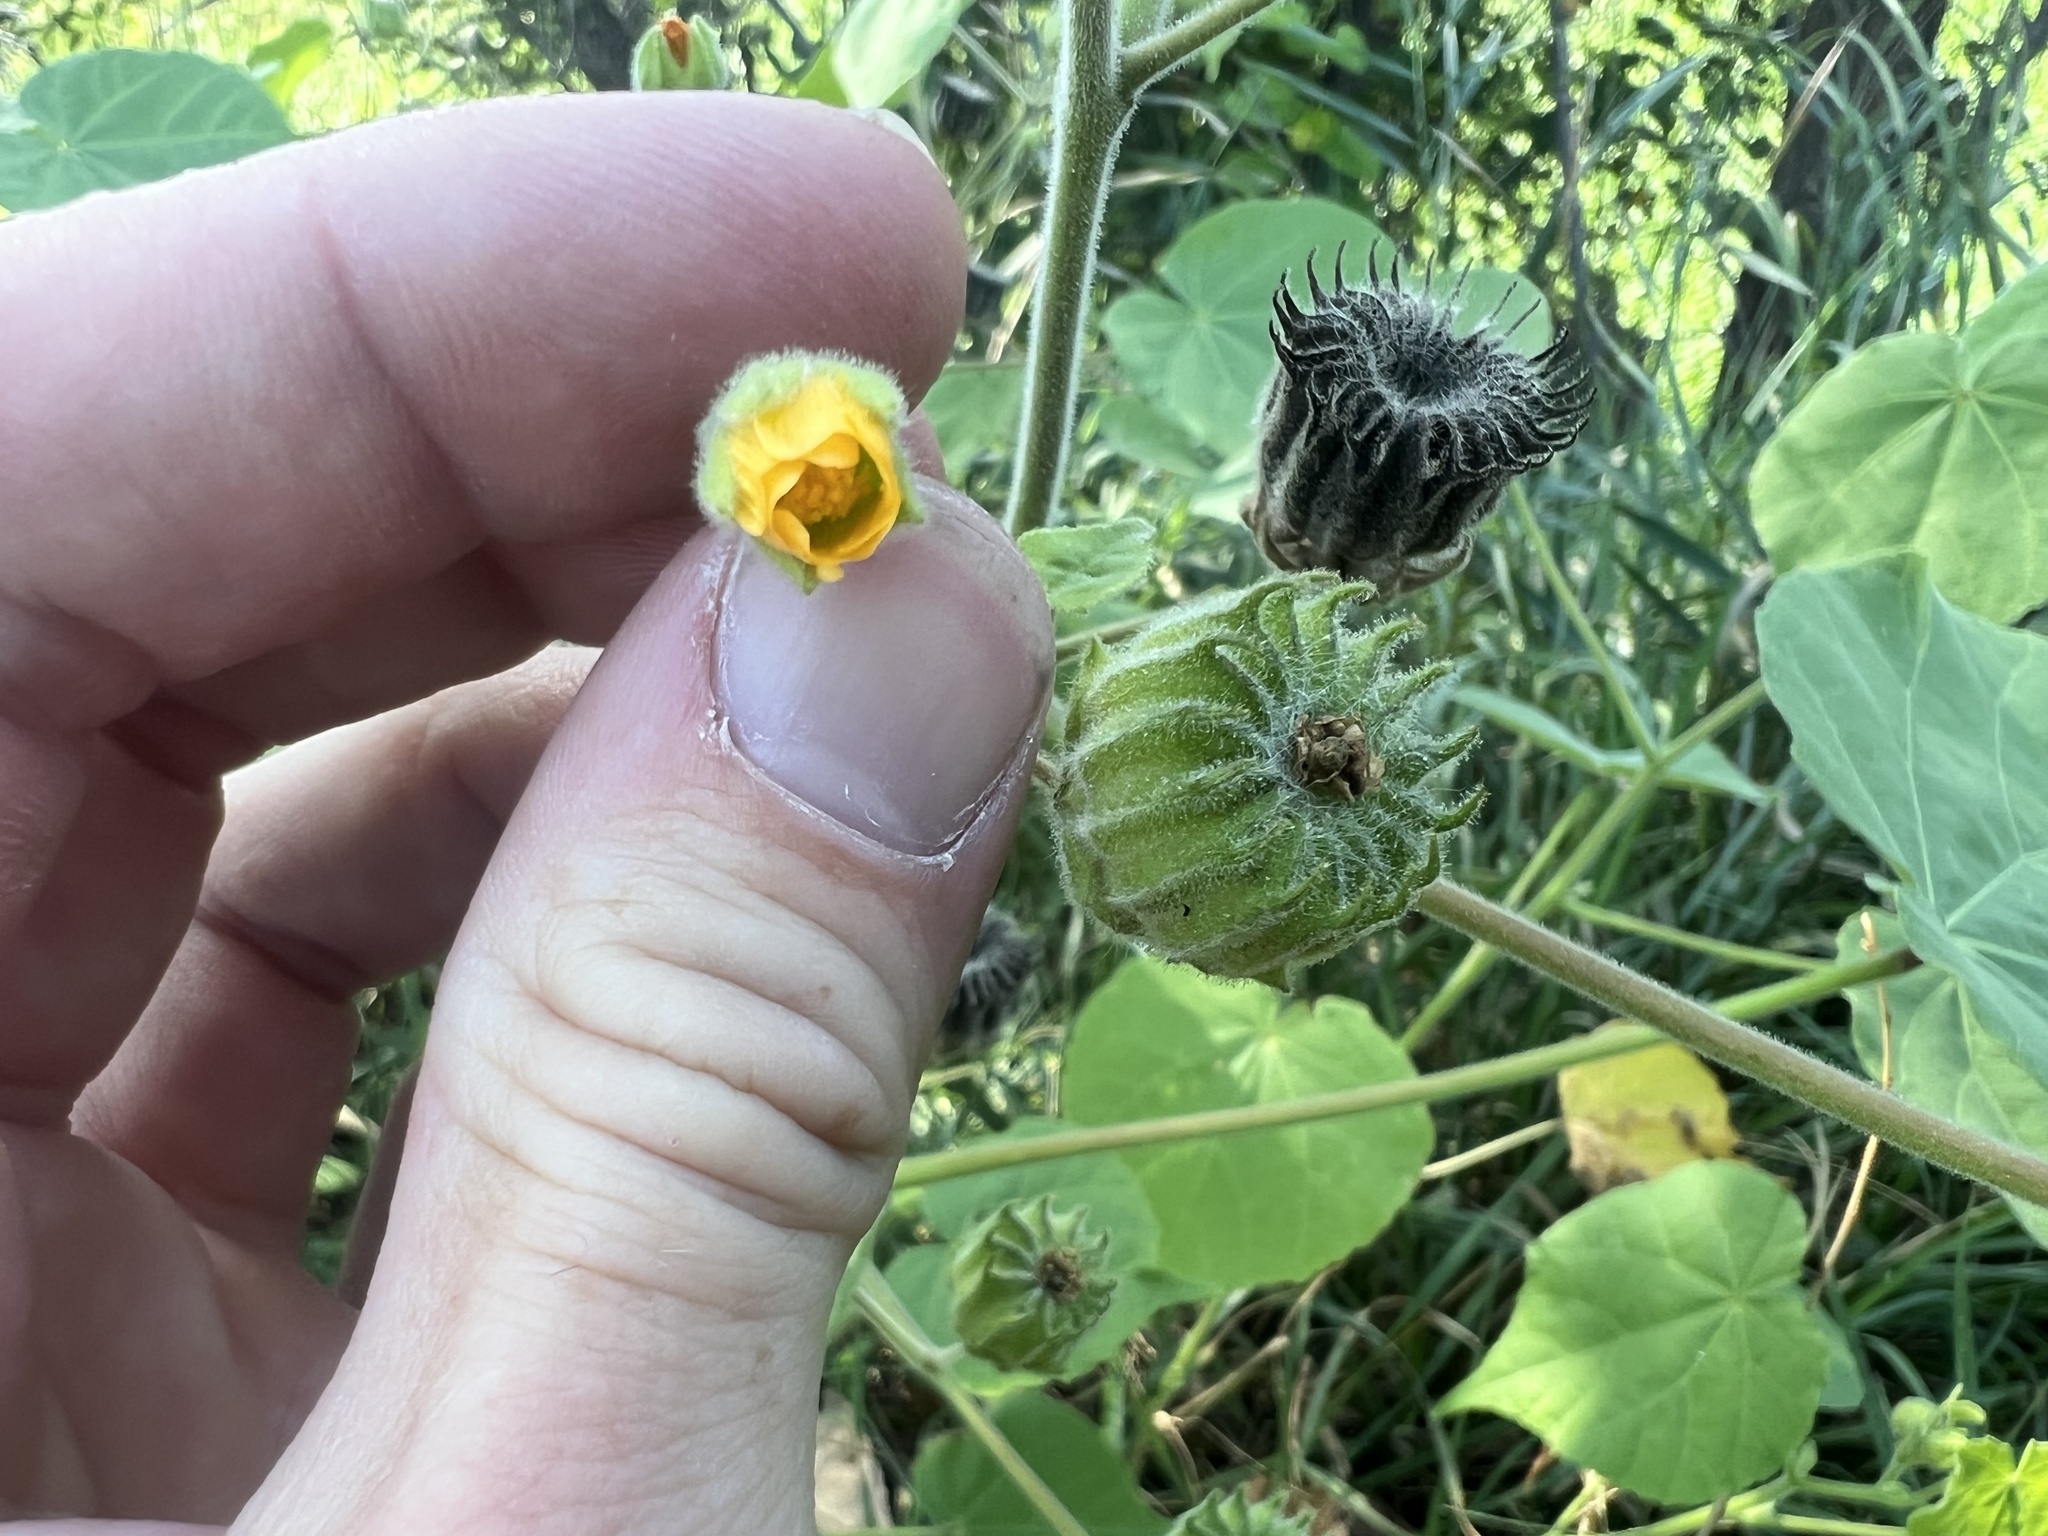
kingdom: Plantae
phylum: Tracheophyta
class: Magnoliopsida
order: Malvales
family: Malvaceae
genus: Abutilon
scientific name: Abutilon theophrasti
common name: Velvetleaf
